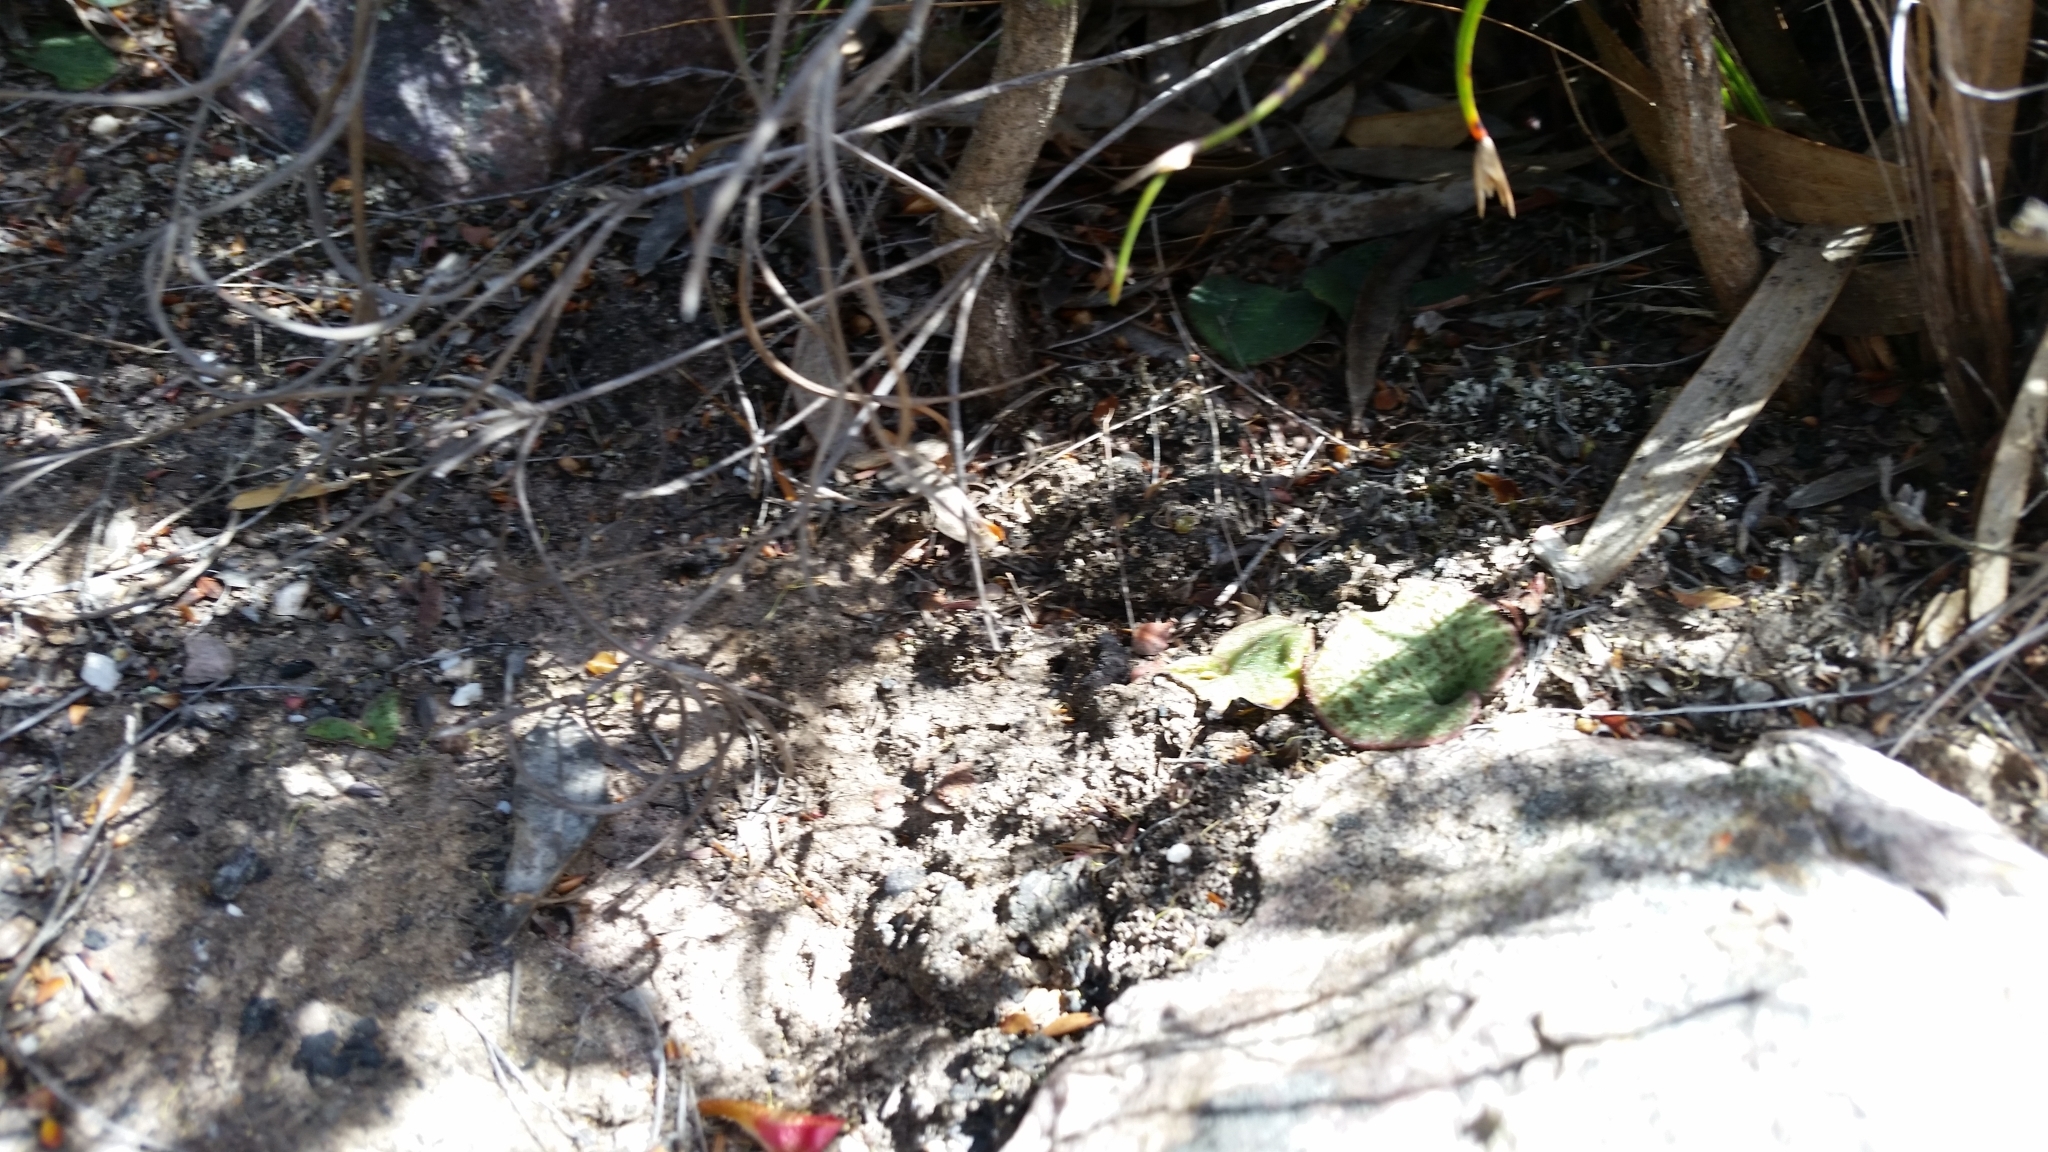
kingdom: Plantae
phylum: Tracheophyta
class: Liliopsida
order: Asparagales
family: Orchidaceae
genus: Pyrorchis
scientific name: Pyrorchis nigricans
